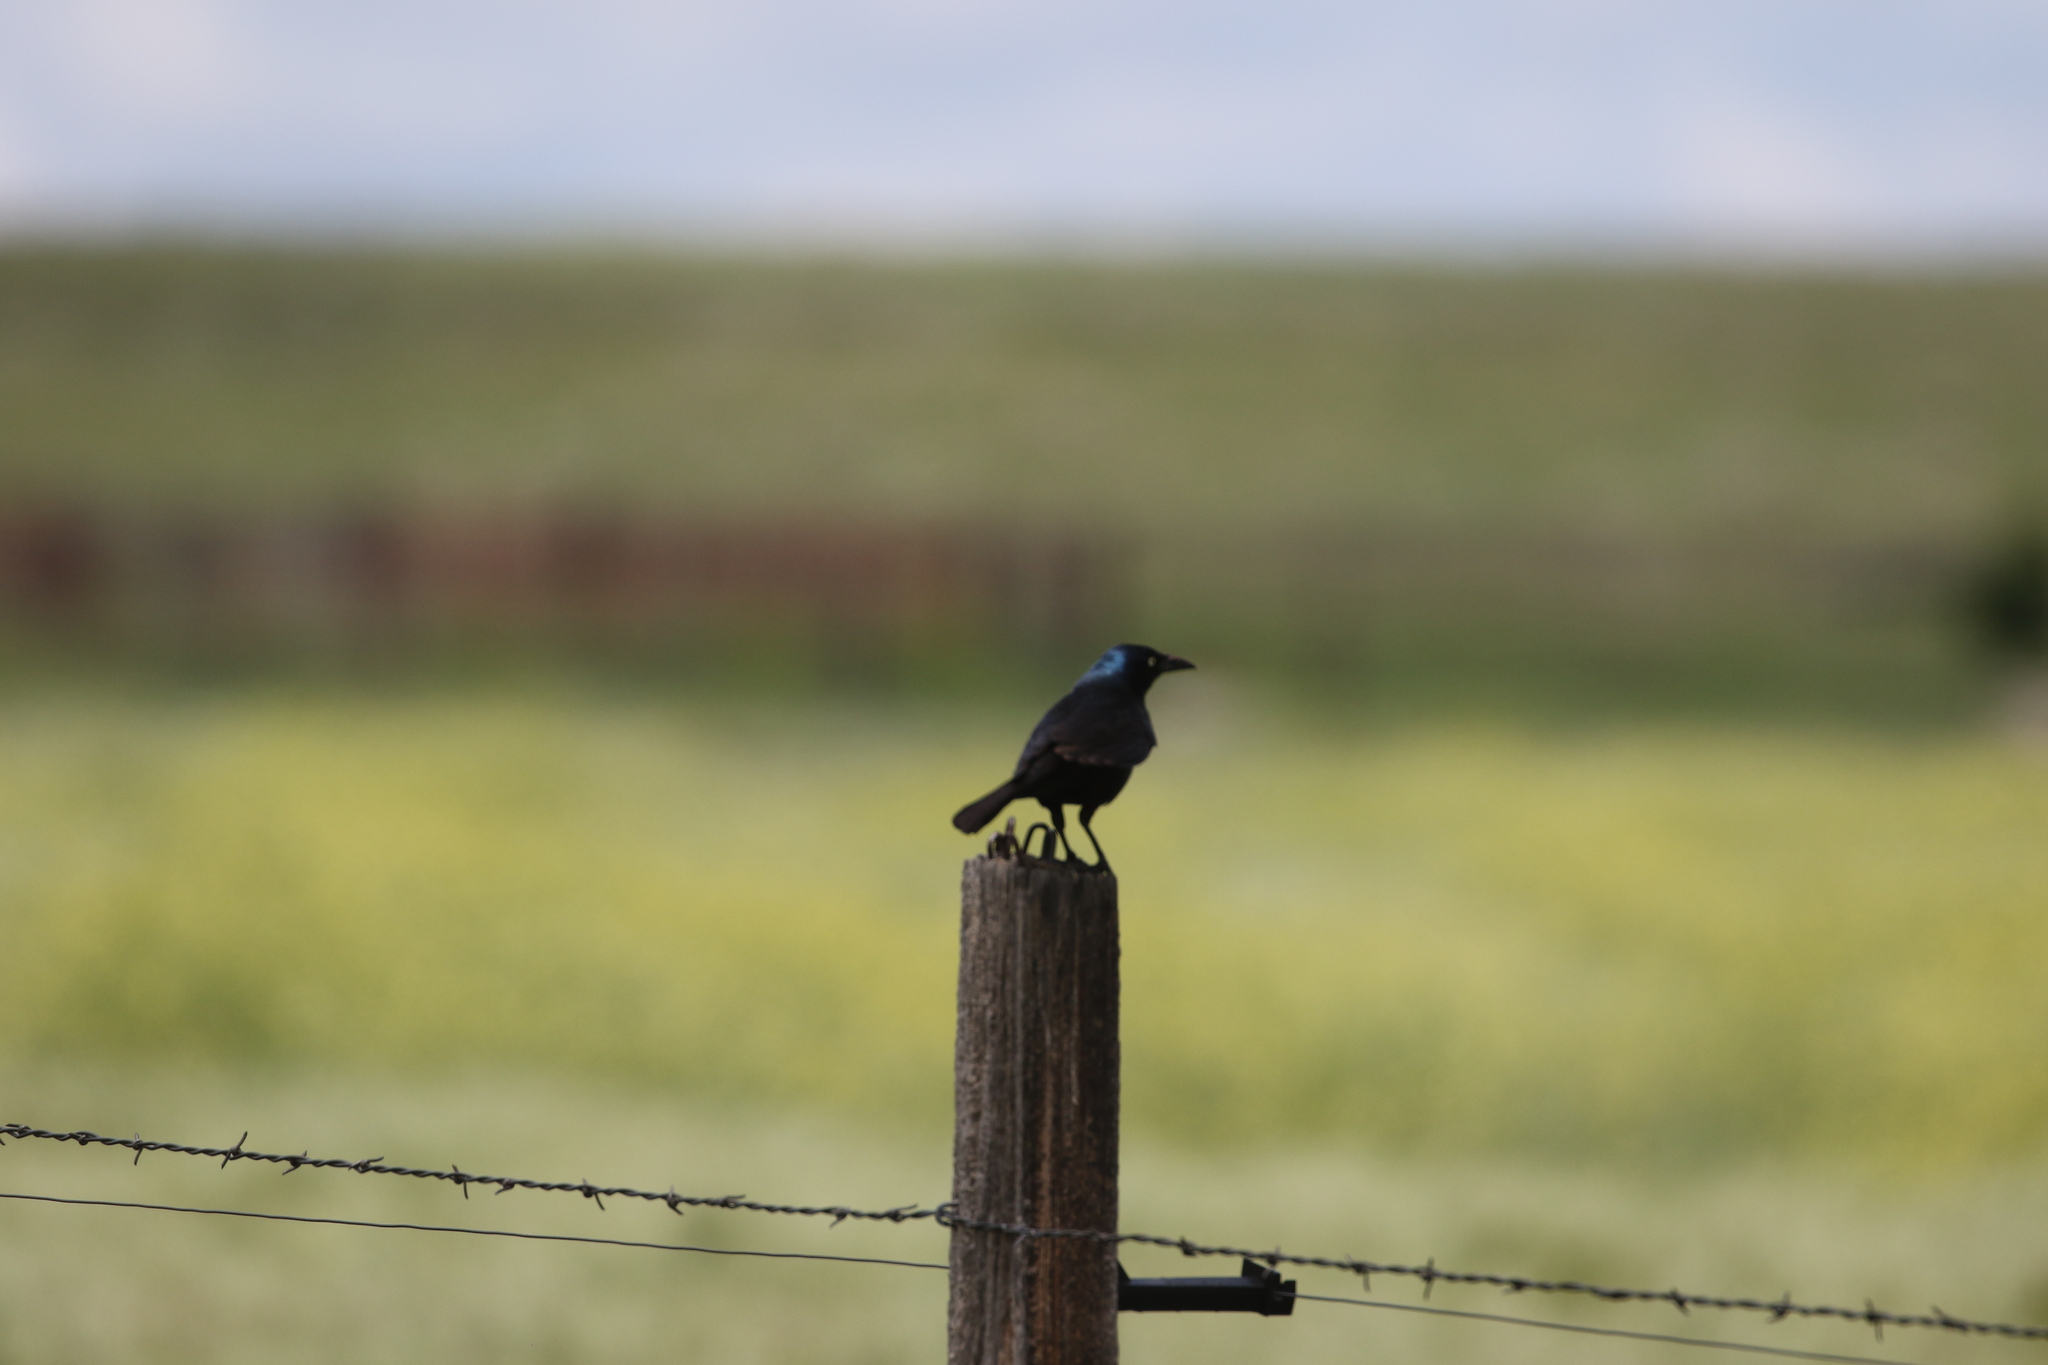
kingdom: Animalia
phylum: Chordata
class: Aves
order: Passeriformes
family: Icteridae
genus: Quiscalus
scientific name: Quiscalus quiscula
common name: Common grackle
